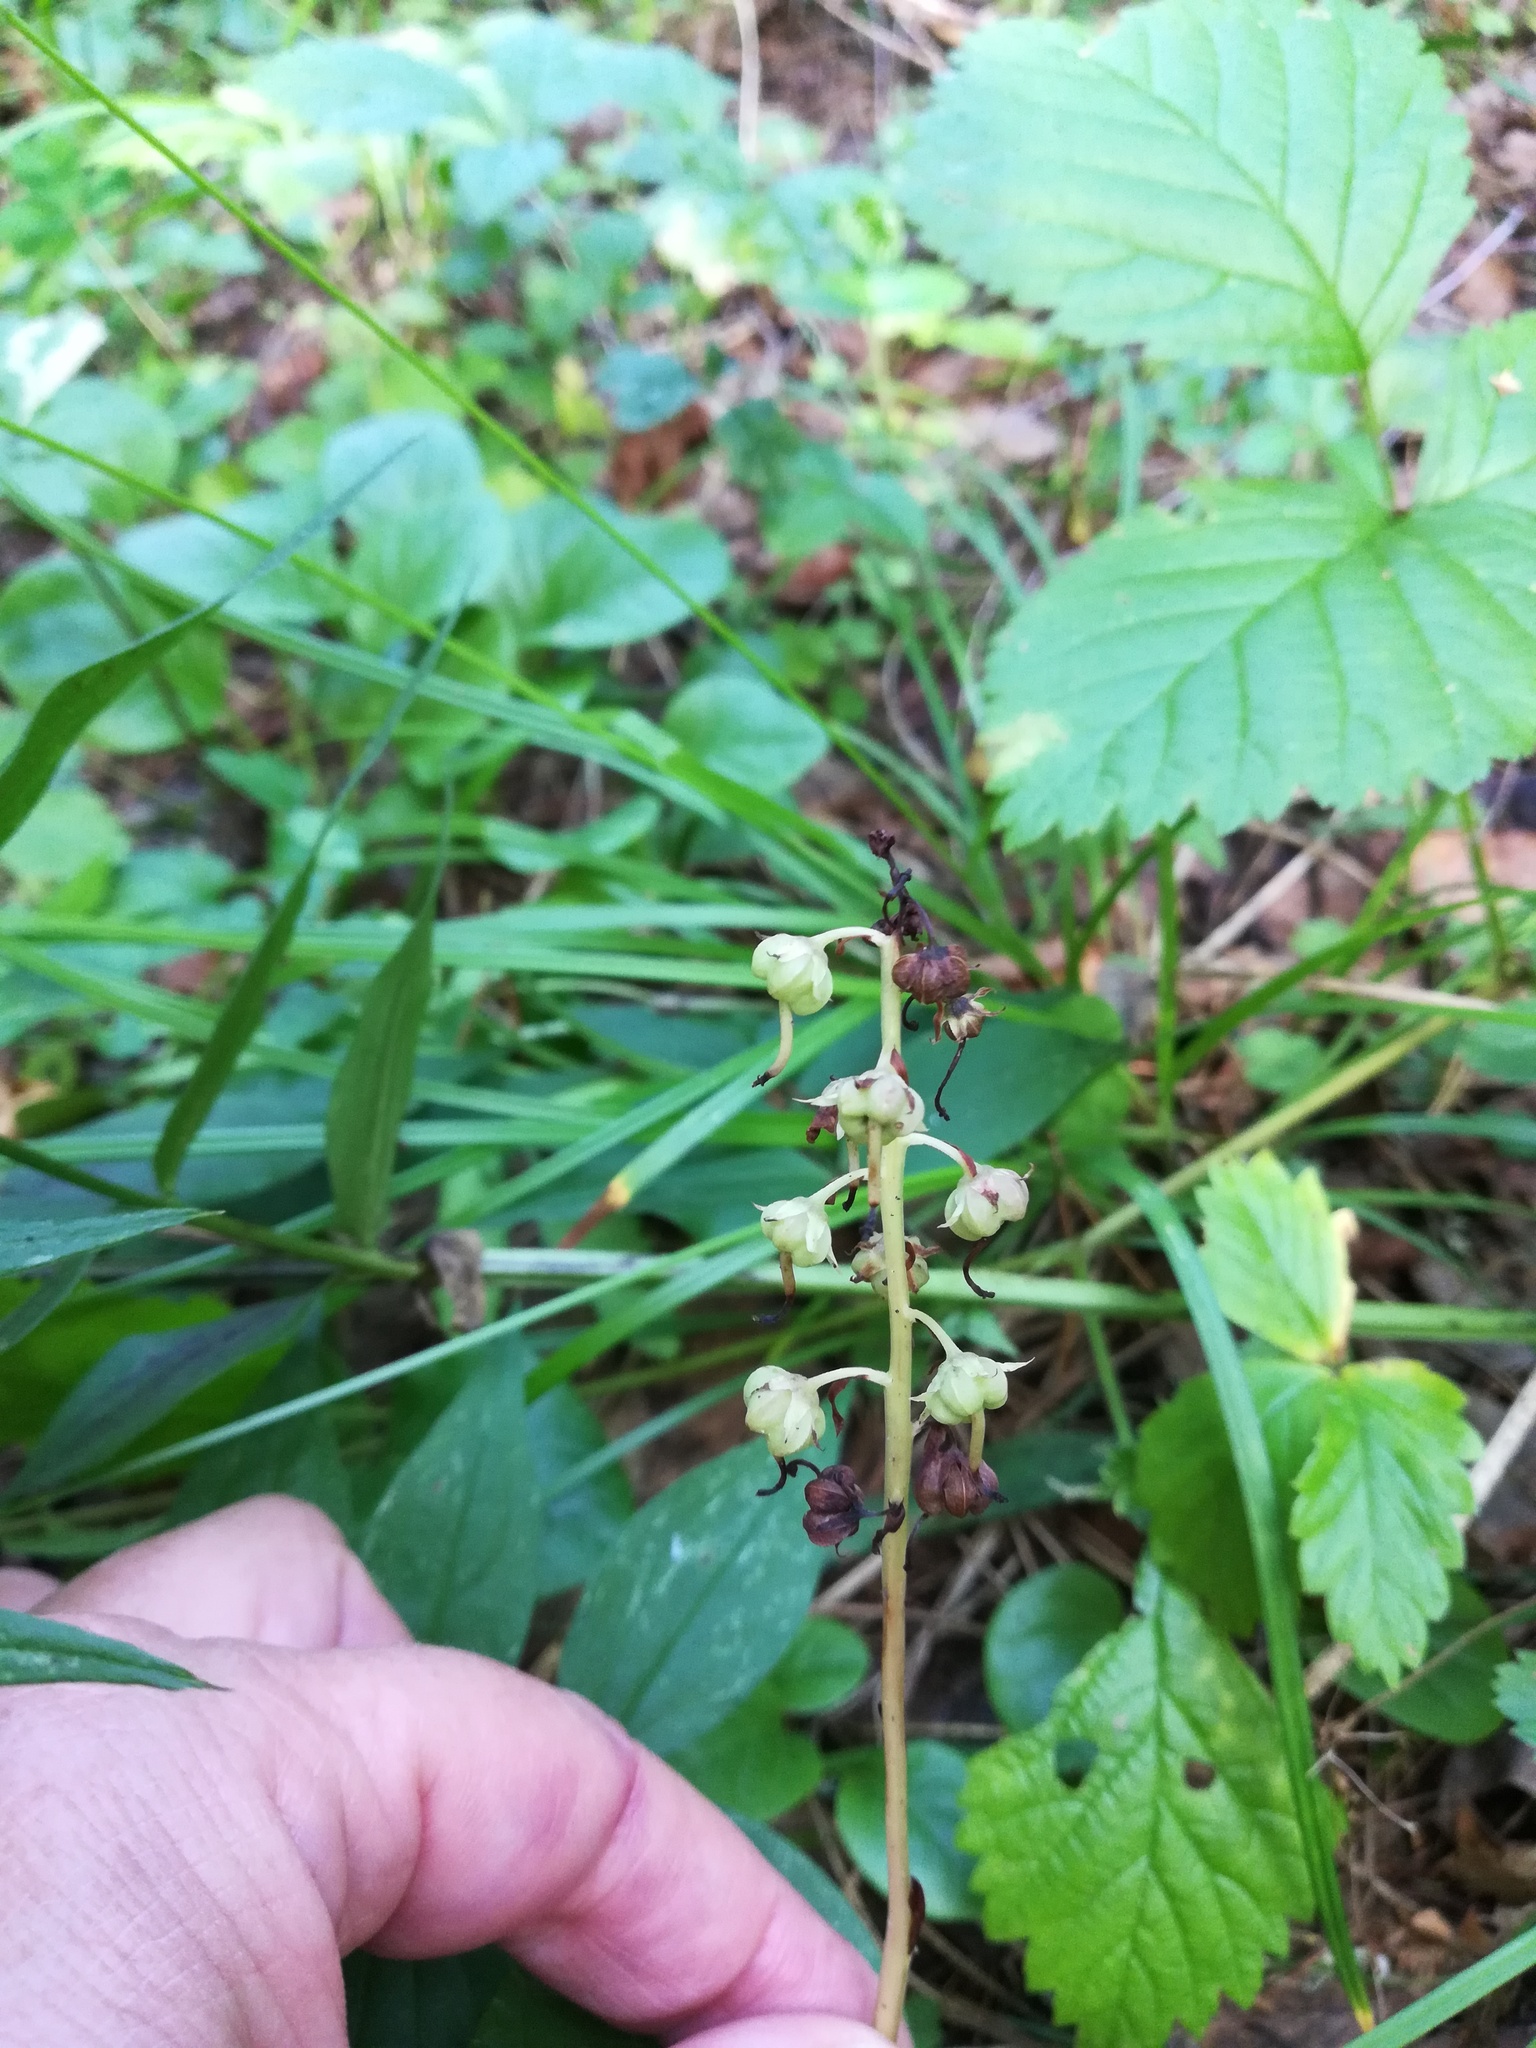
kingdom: Plantae
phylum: Tracheophyta
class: Magnoliopsida
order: Ericales
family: Ericaceae
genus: Pyrola
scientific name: Pyrola rotundifolia
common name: Round-leaved wintergreen
